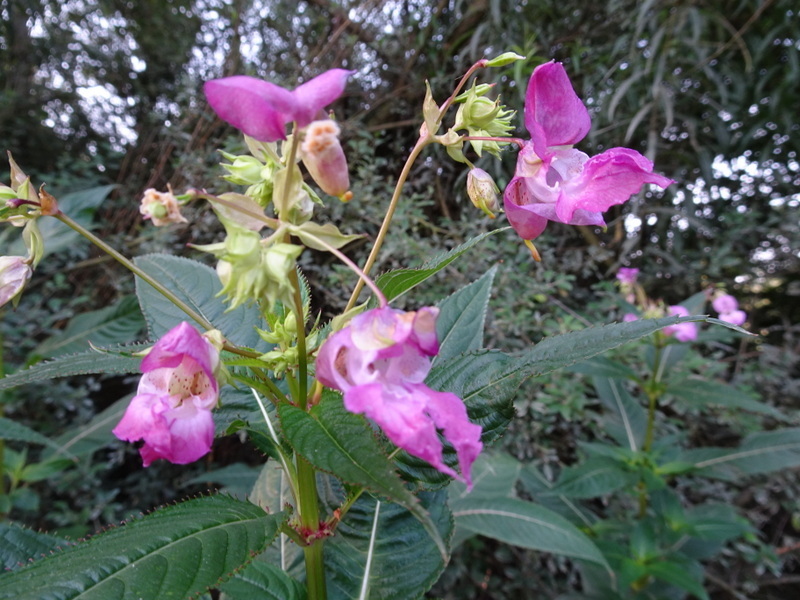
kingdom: Plantae
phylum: Tracheophyta
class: Magnoliopsida
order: Ericales
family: Balsaminaceae
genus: Impatiens
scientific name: Impatiens glandulifera
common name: Himalayan balsam
